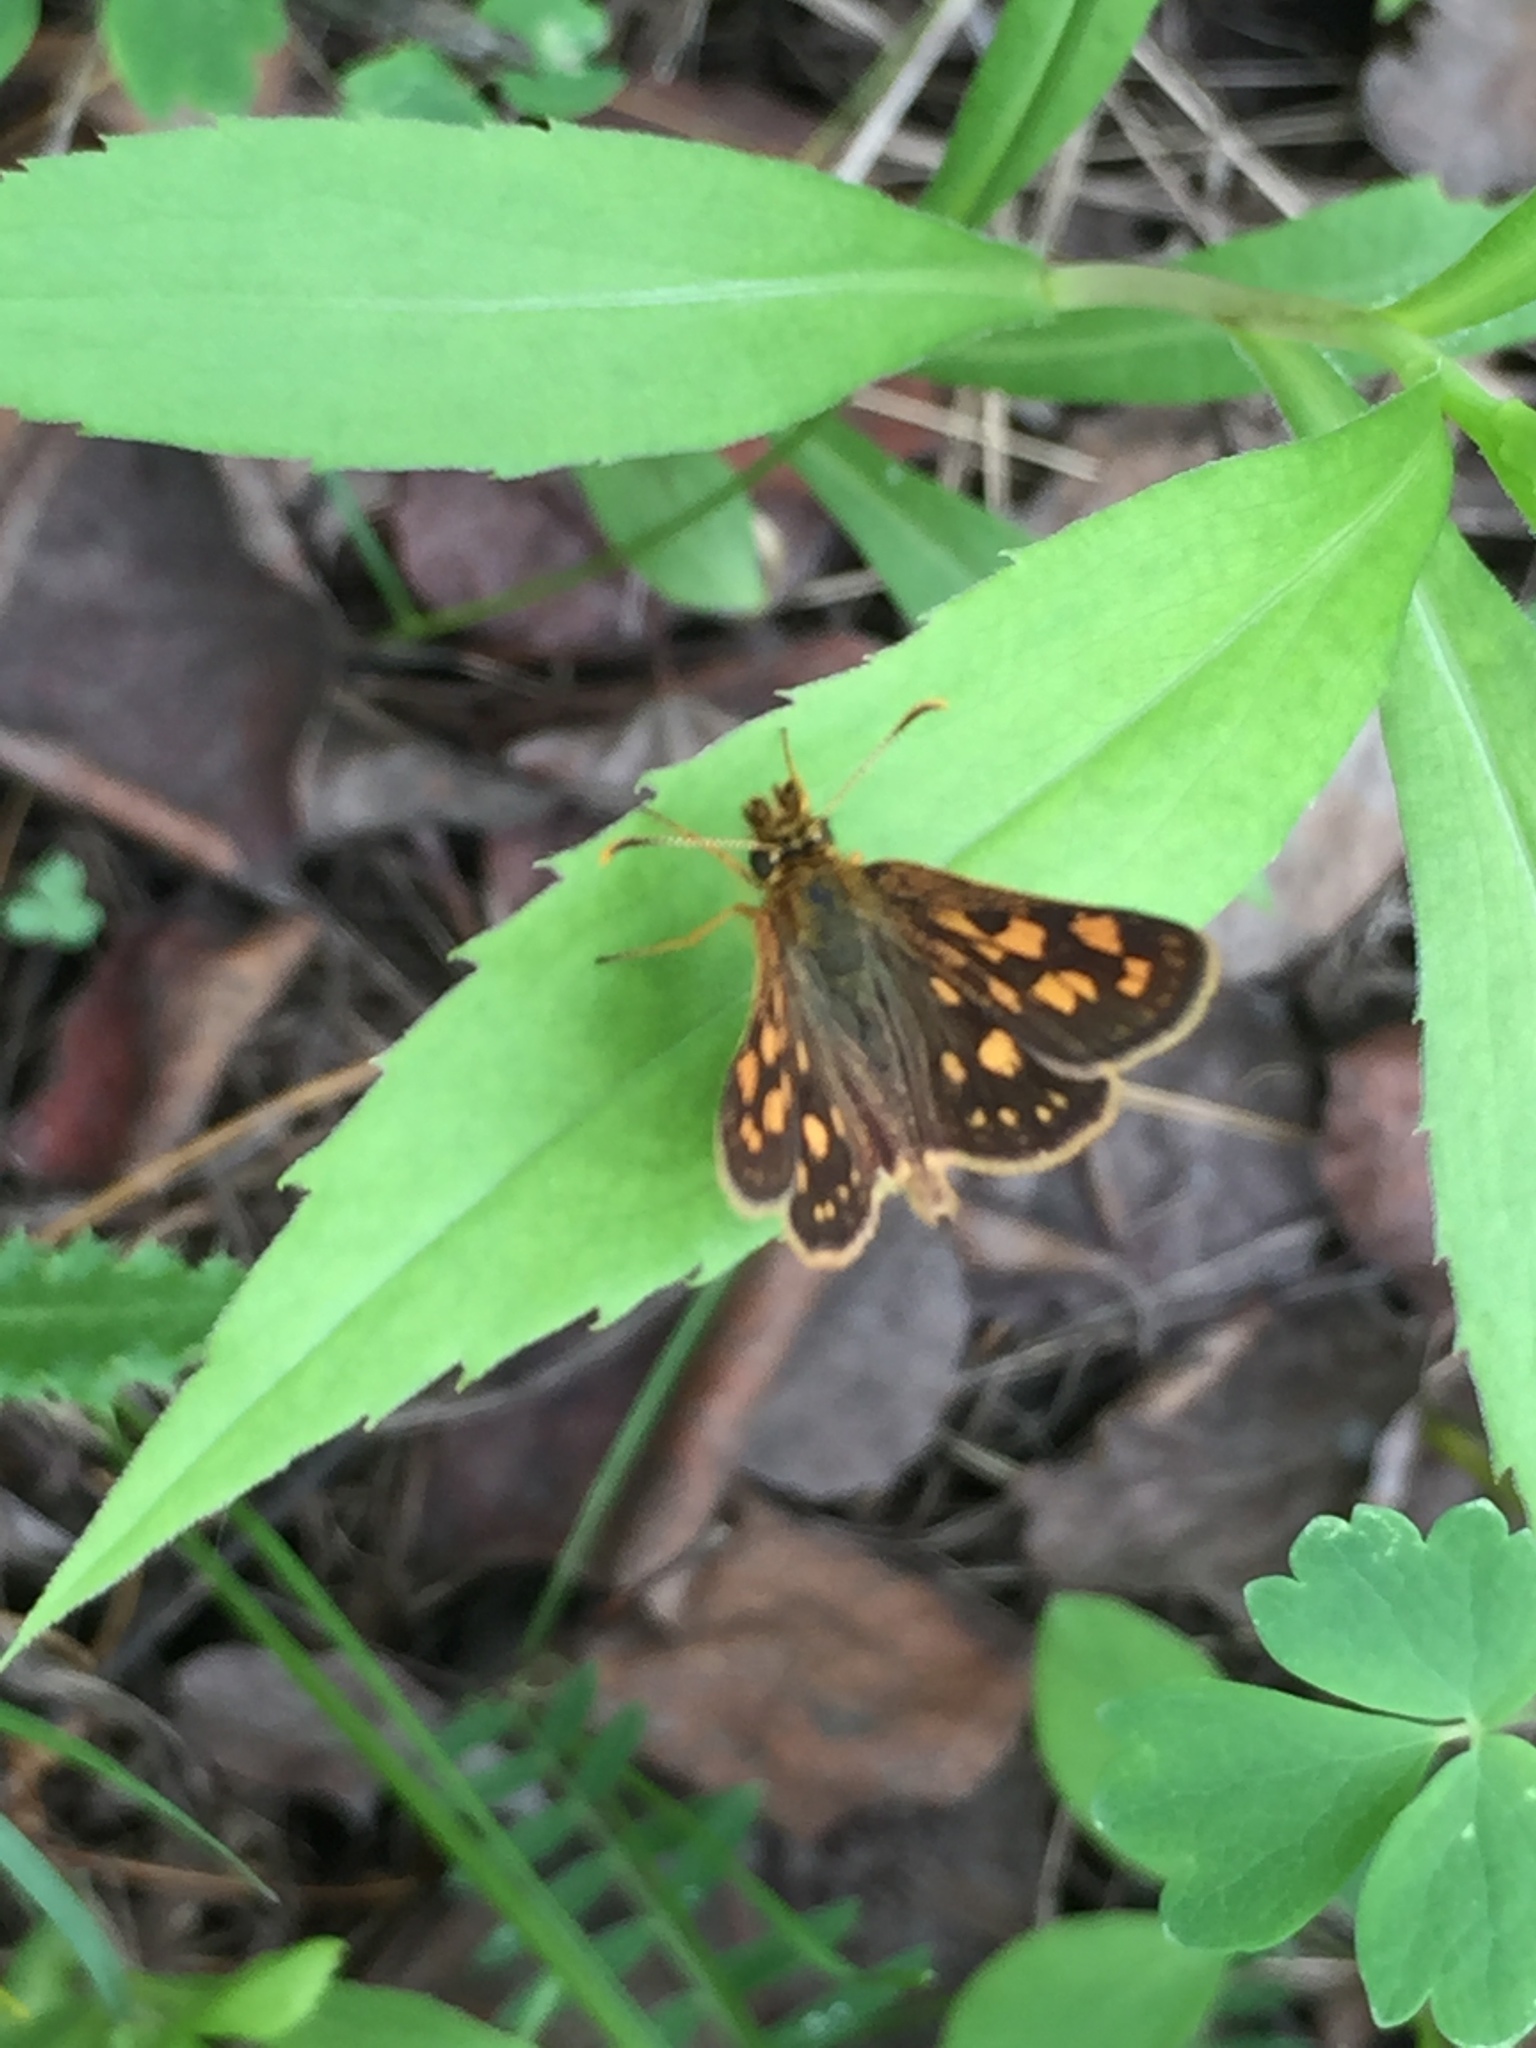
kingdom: Animalia
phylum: Arthropoda
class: Insecta
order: Lepidoptera
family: Hesperiidae
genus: Carterocephalus
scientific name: Carterocephalus mandan
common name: Arctic skipperling
